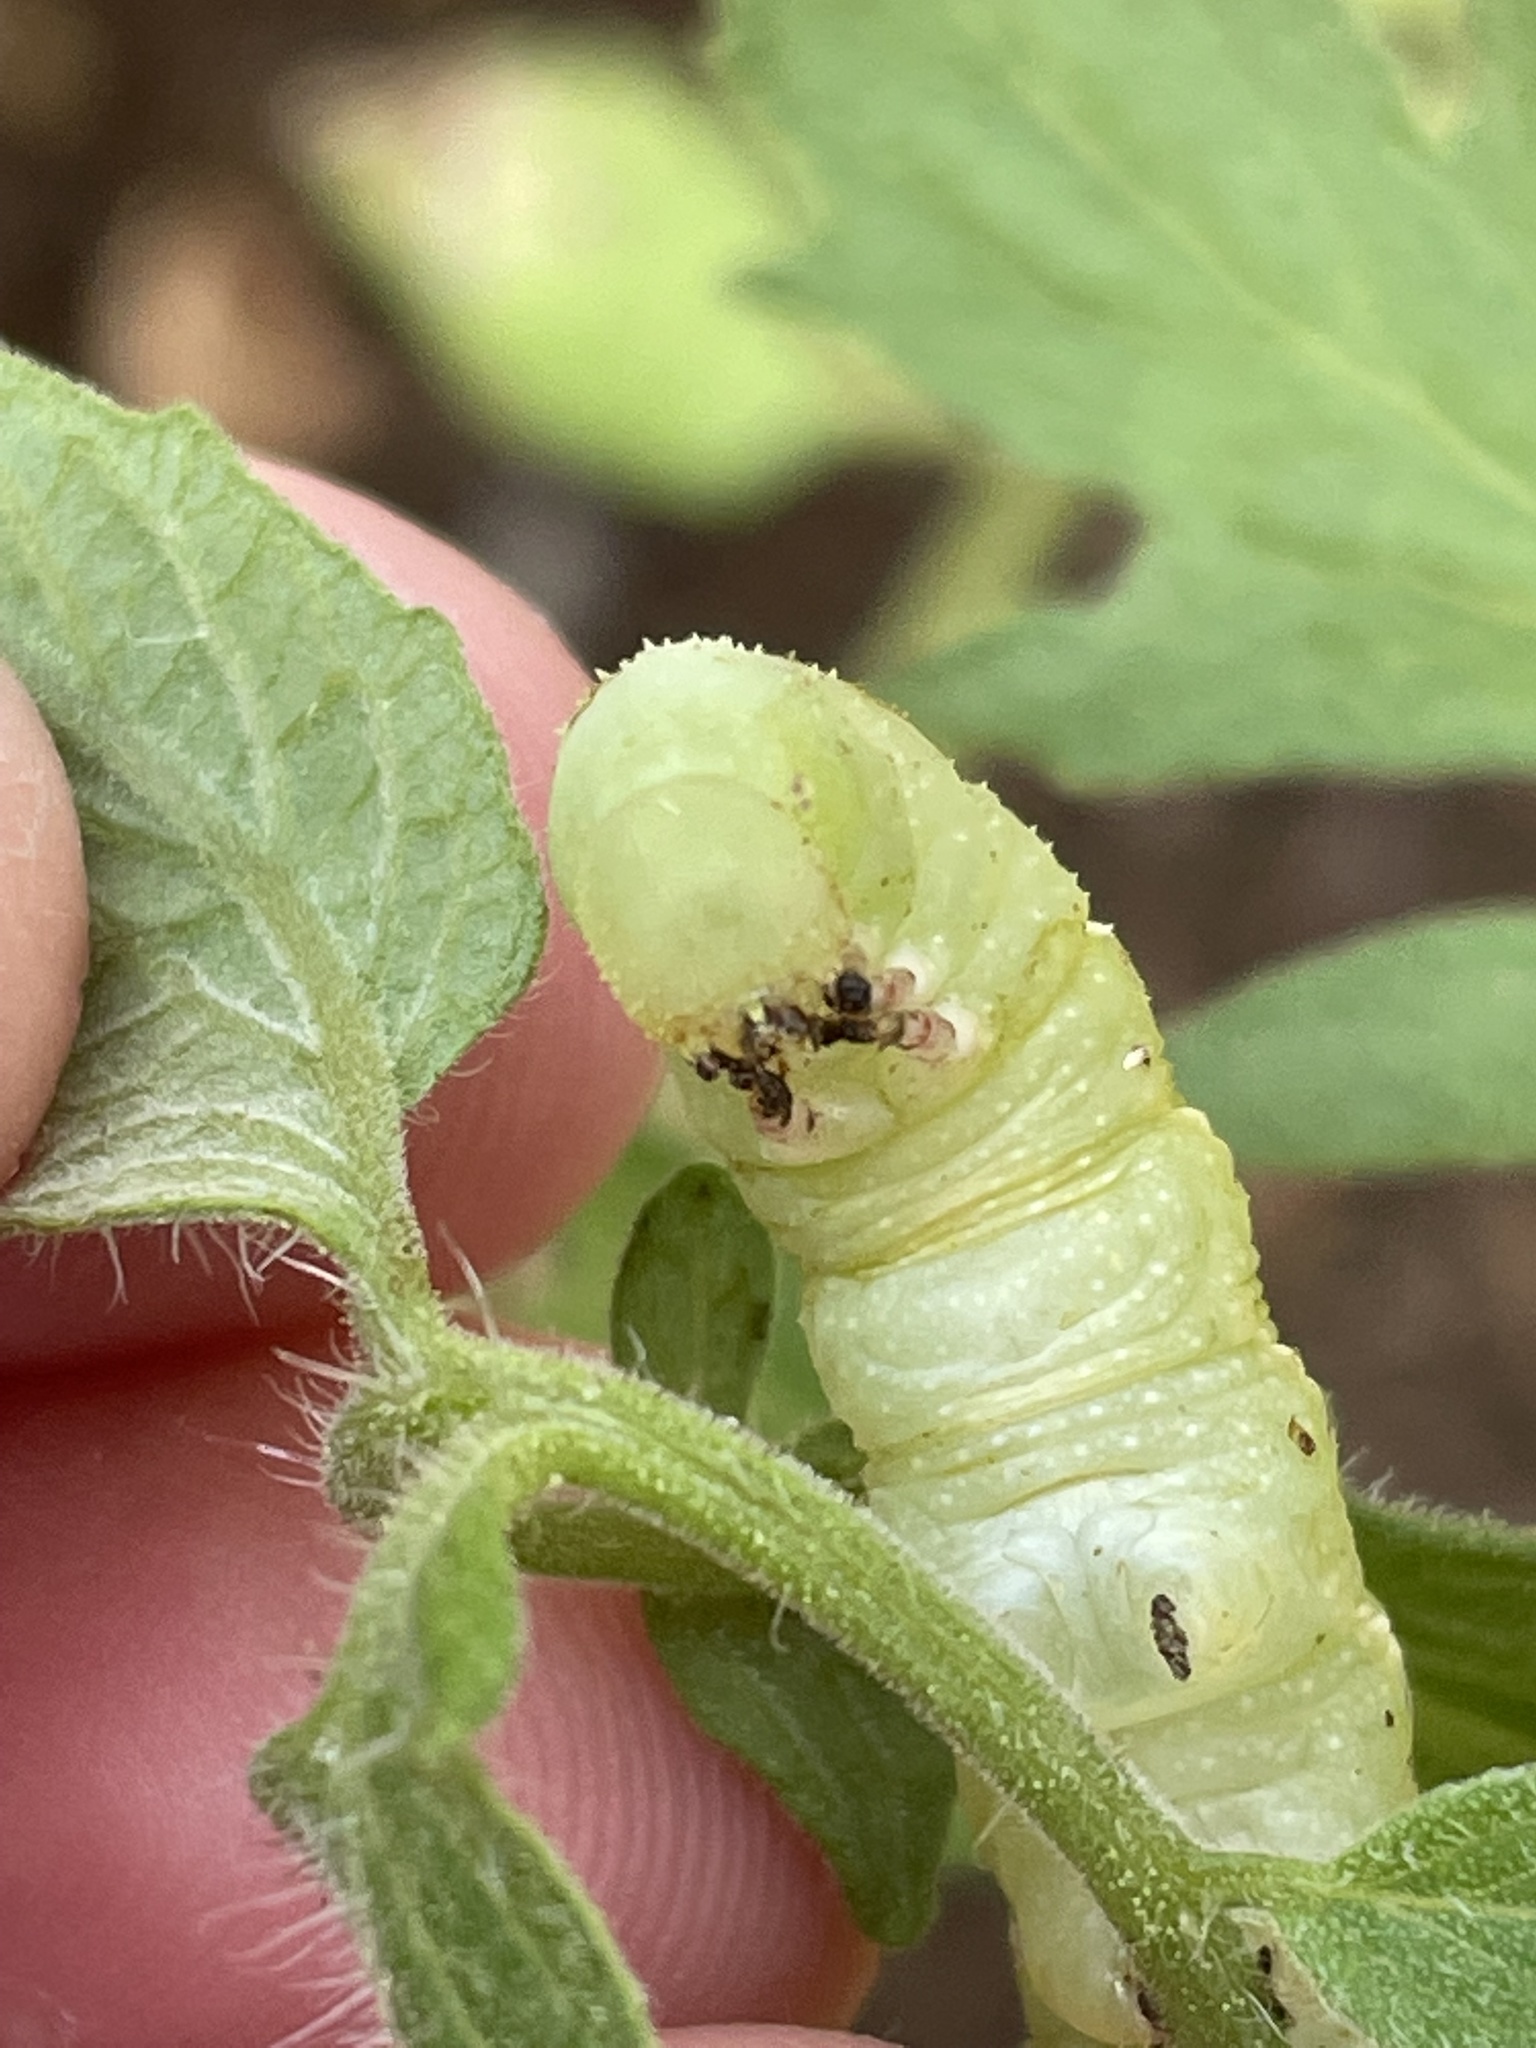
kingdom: Animalia
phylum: Arthropoda
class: Insecta
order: Lepidoptera
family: Sphingidae
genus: Manduca
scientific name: Manduca sexta
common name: Carolina sphinx
